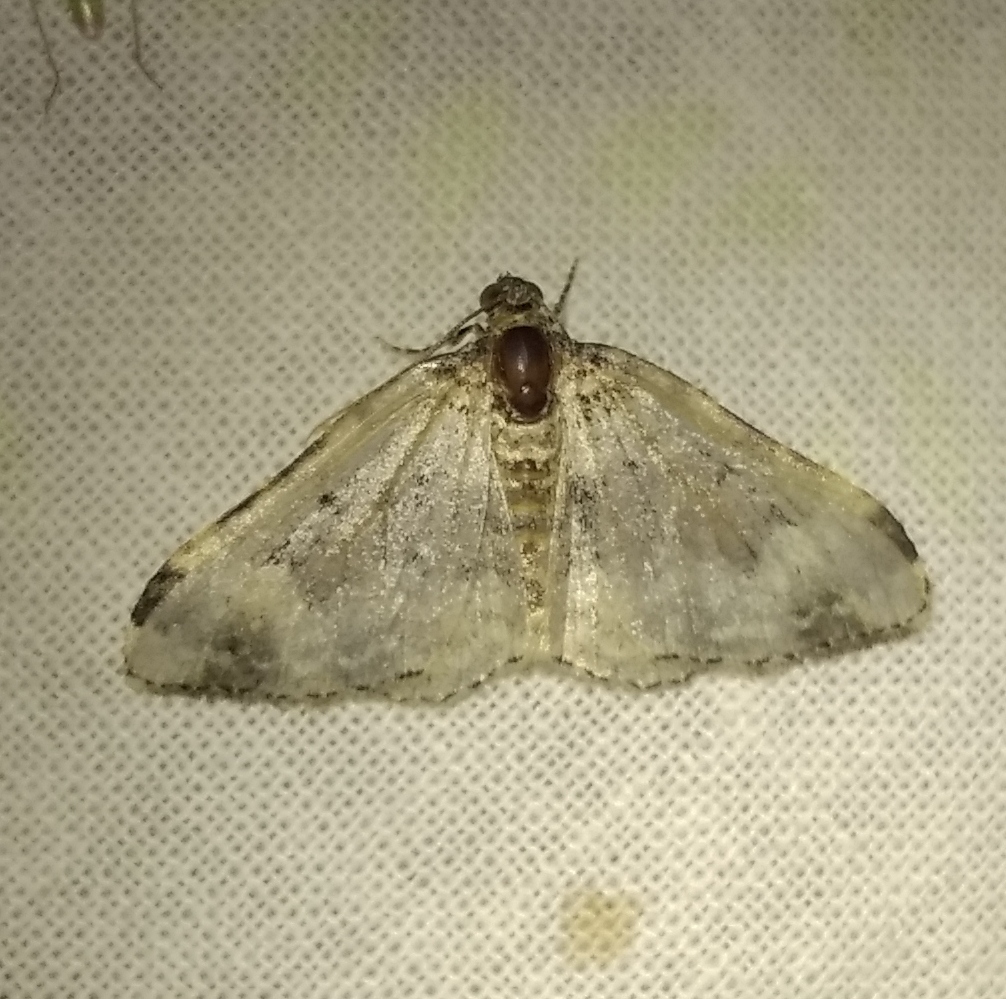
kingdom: Animalia
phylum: Arthropoda
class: Insecta
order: Lepidoptera
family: Geometridae
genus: Epirrhoe
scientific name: Epirrhoe galiata
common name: Galium carpet
